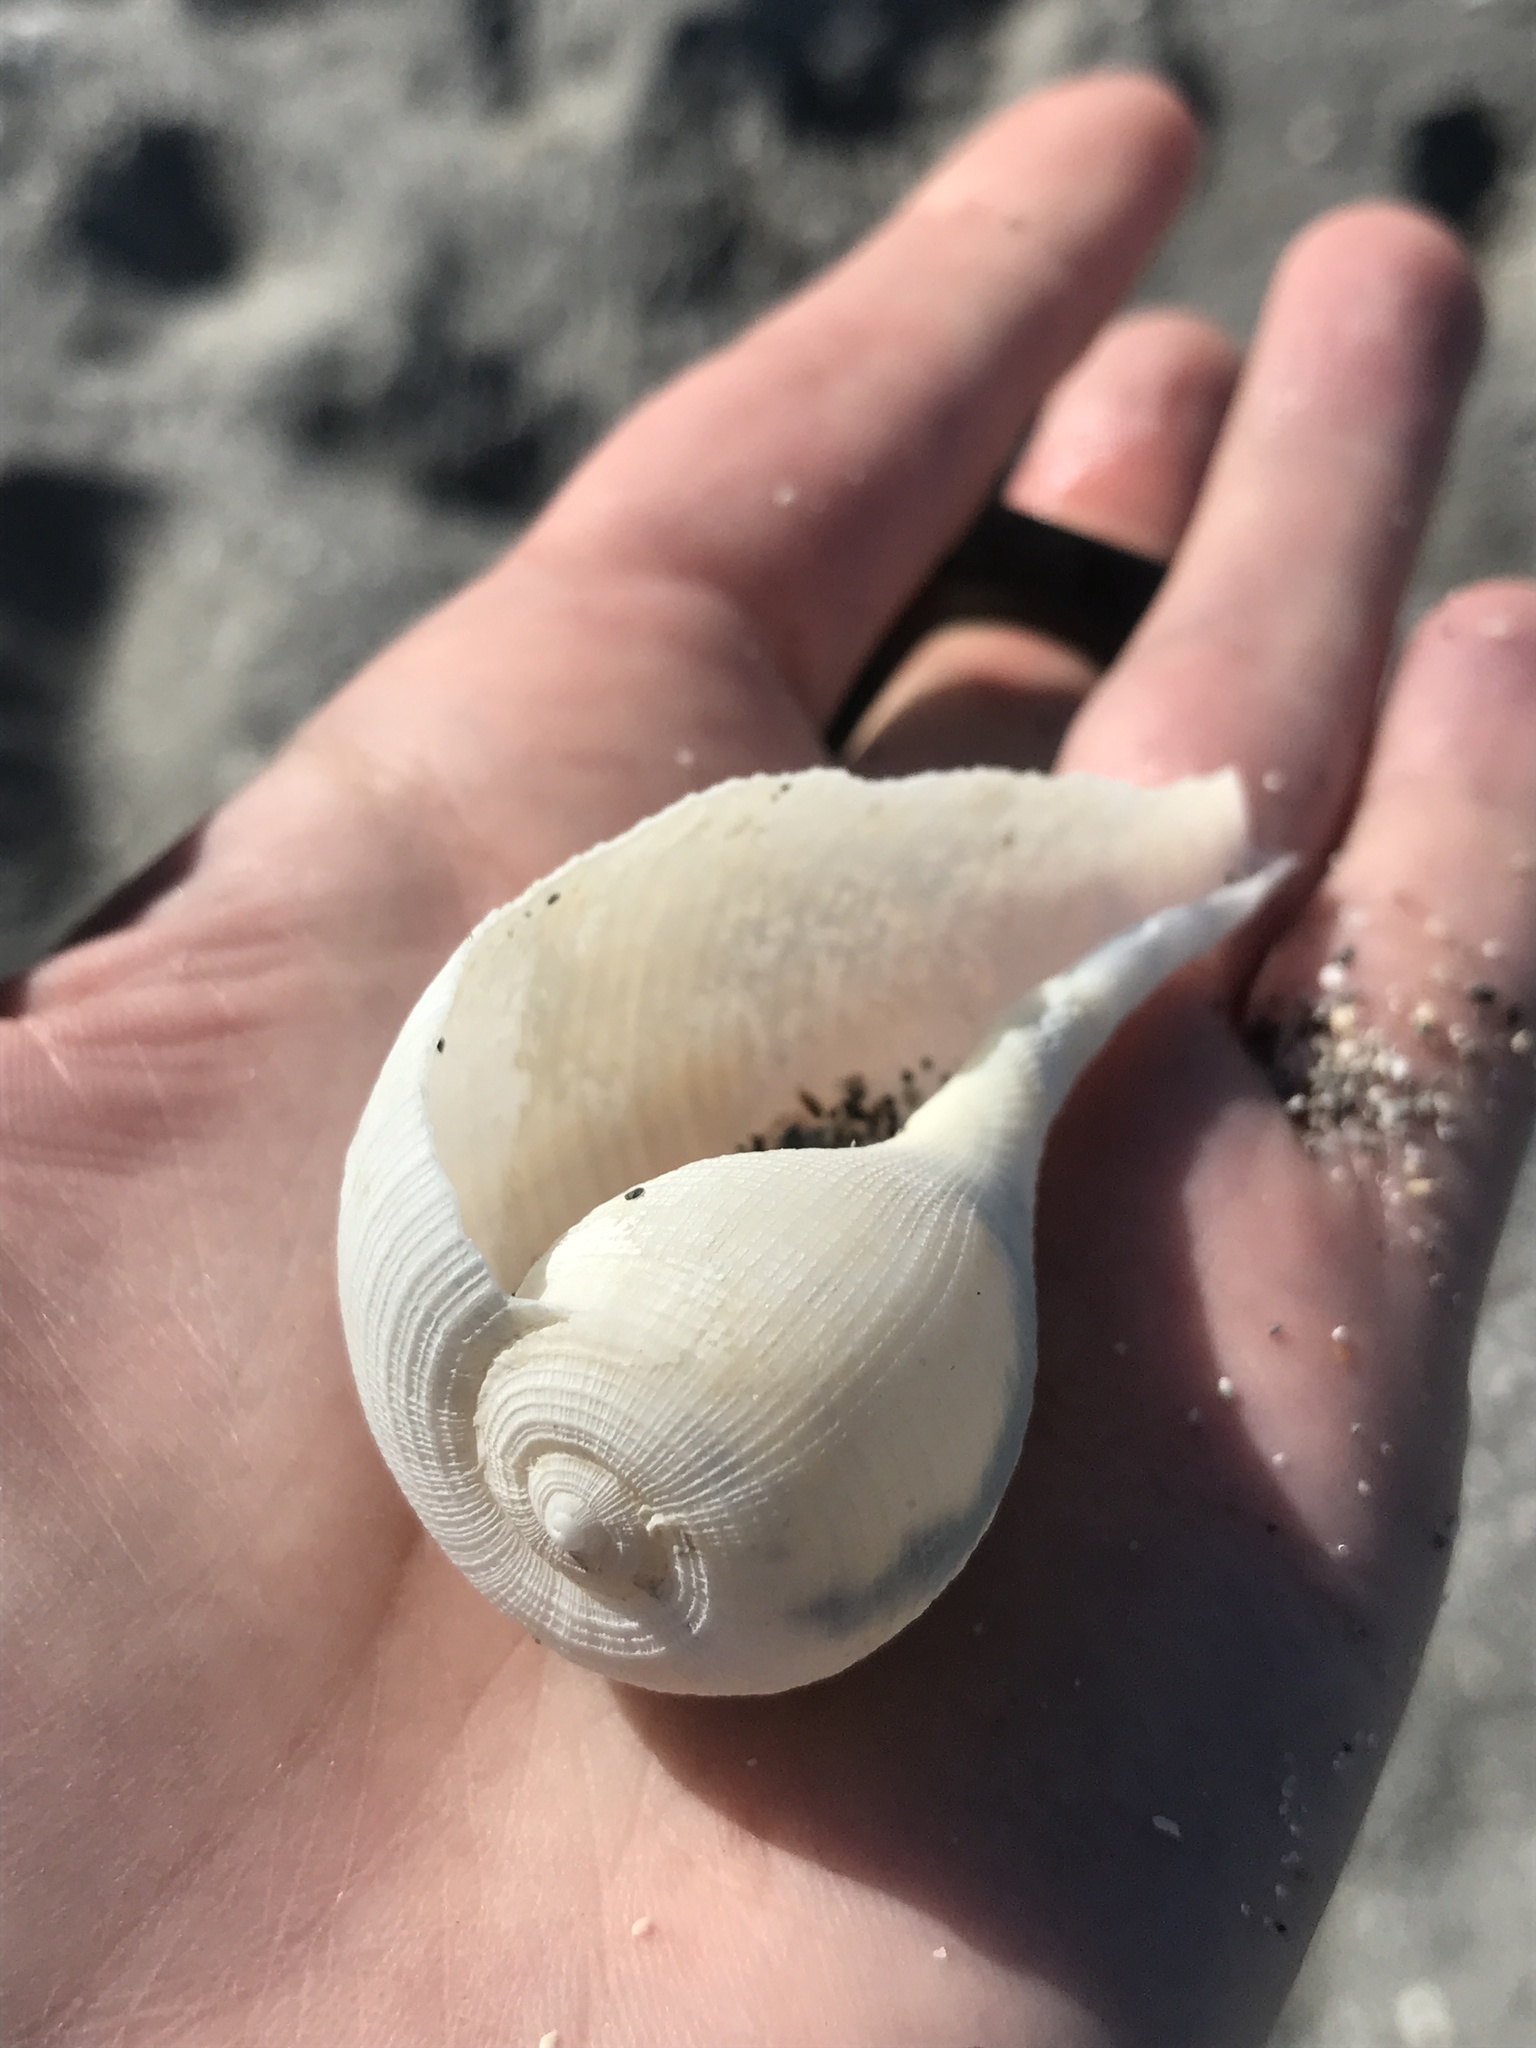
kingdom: Animalia
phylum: Mollusca
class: Gastropoda
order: Littorinimorpha
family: Ficidae
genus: Ficus
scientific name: Ficus papyratia
